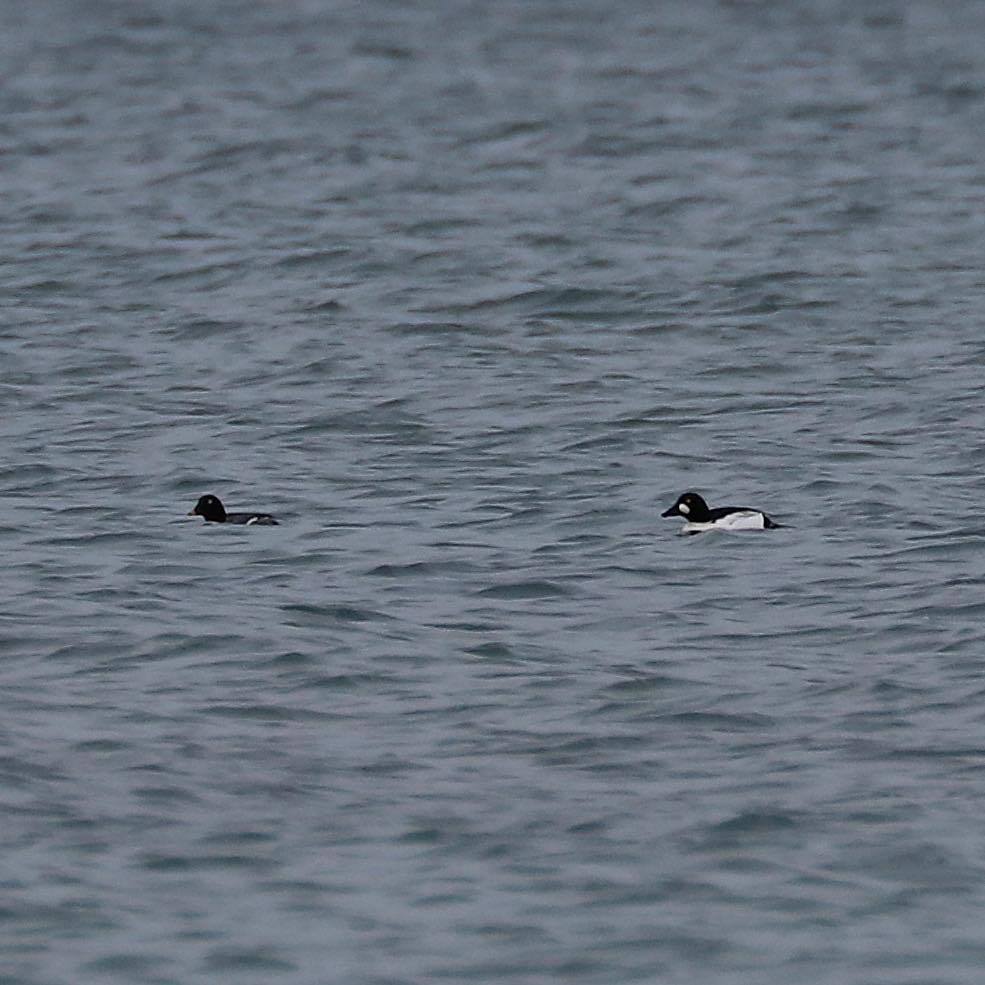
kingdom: Animalia
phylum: Chordata
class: Aves
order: Anseriformes
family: Anatidae
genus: Bucephala
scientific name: Bucephala clangula
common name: Common goldeneye
